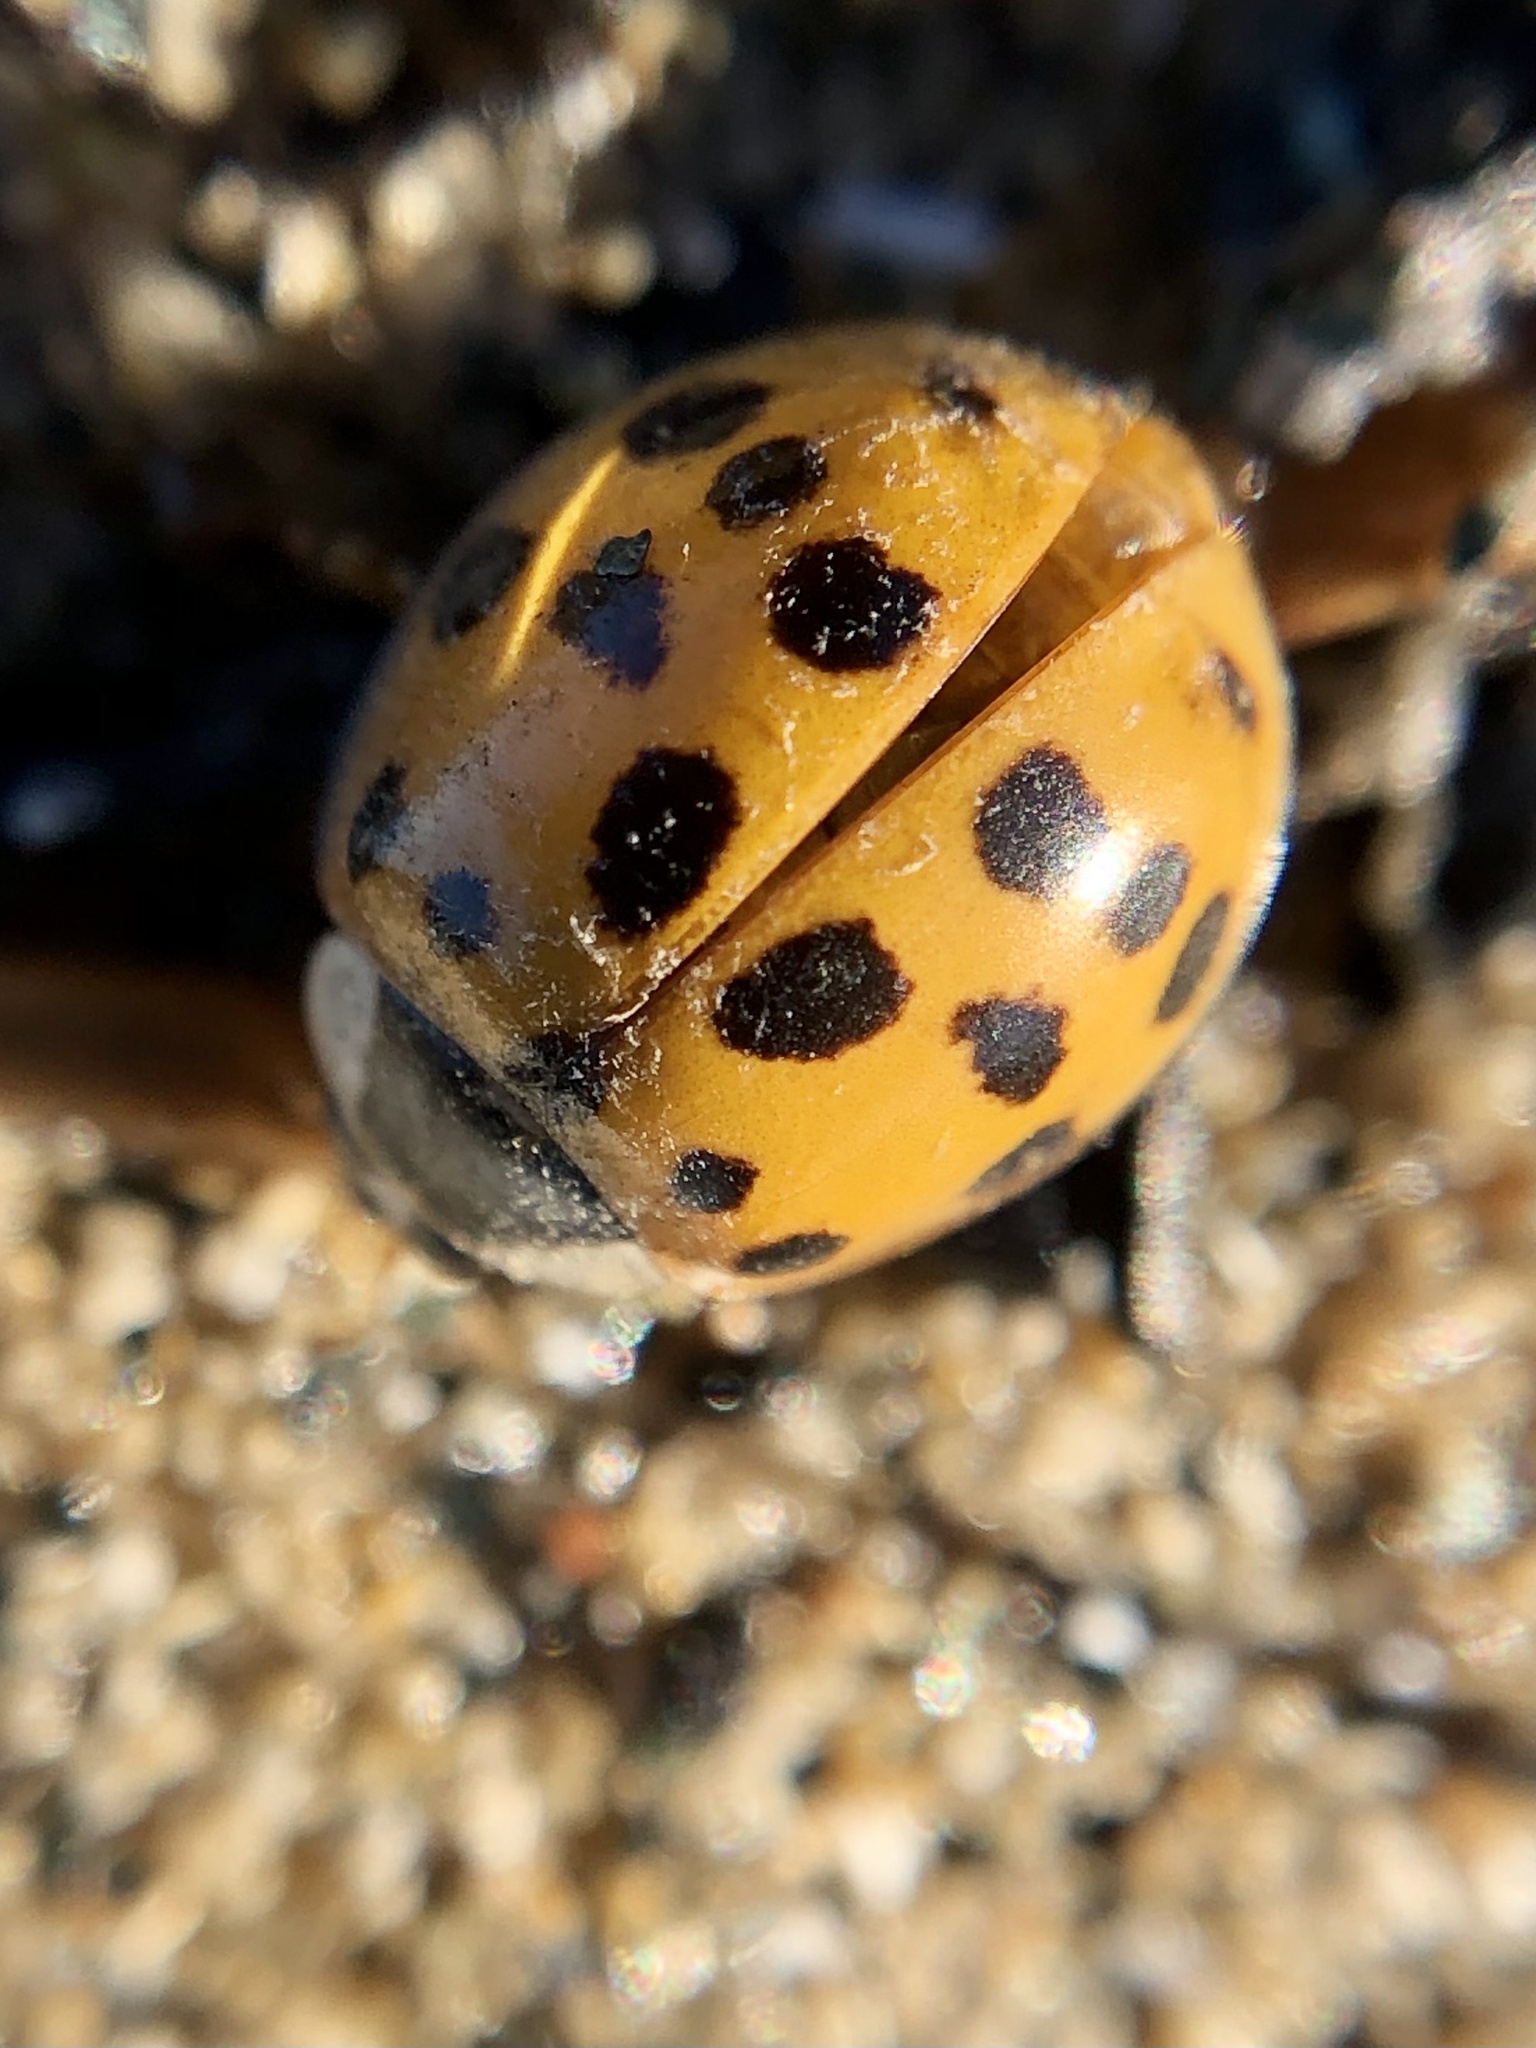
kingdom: Animalia
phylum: Arthropoda
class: Insecta
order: Coleoptera
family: Coccinellidae
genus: Harmonia
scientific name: Harmonia axyridis
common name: Harlequin ladybird
